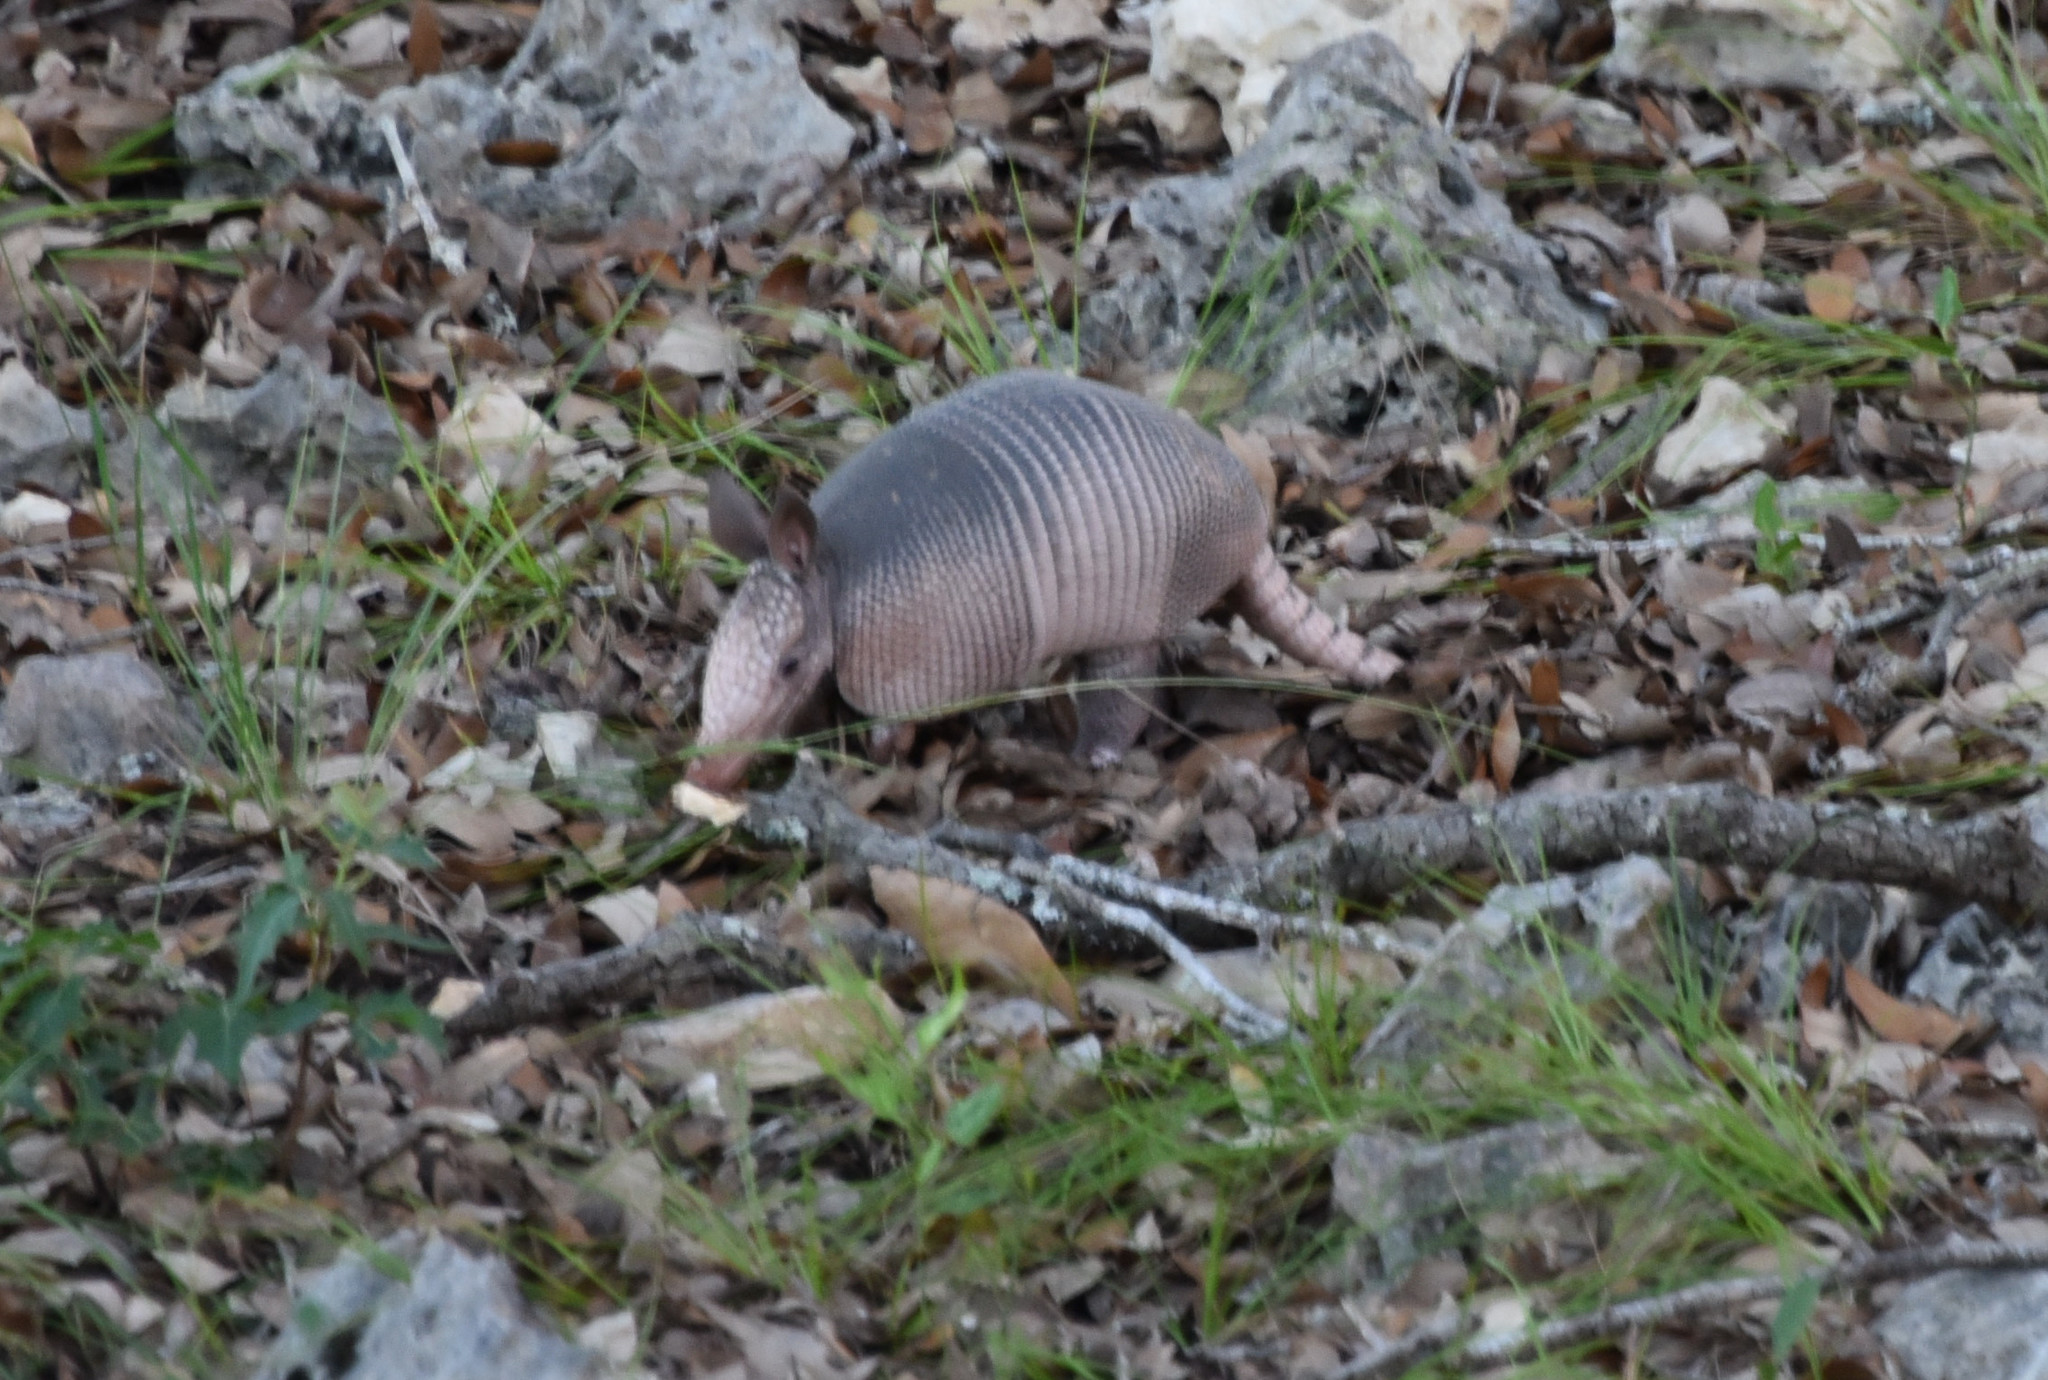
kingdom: Animalia
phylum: Chordata
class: Mammalia
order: Cingulata
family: Dasypodidae
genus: Dasypus
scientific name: Dasypus novemcinctus
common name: Nine-banded armadillo
